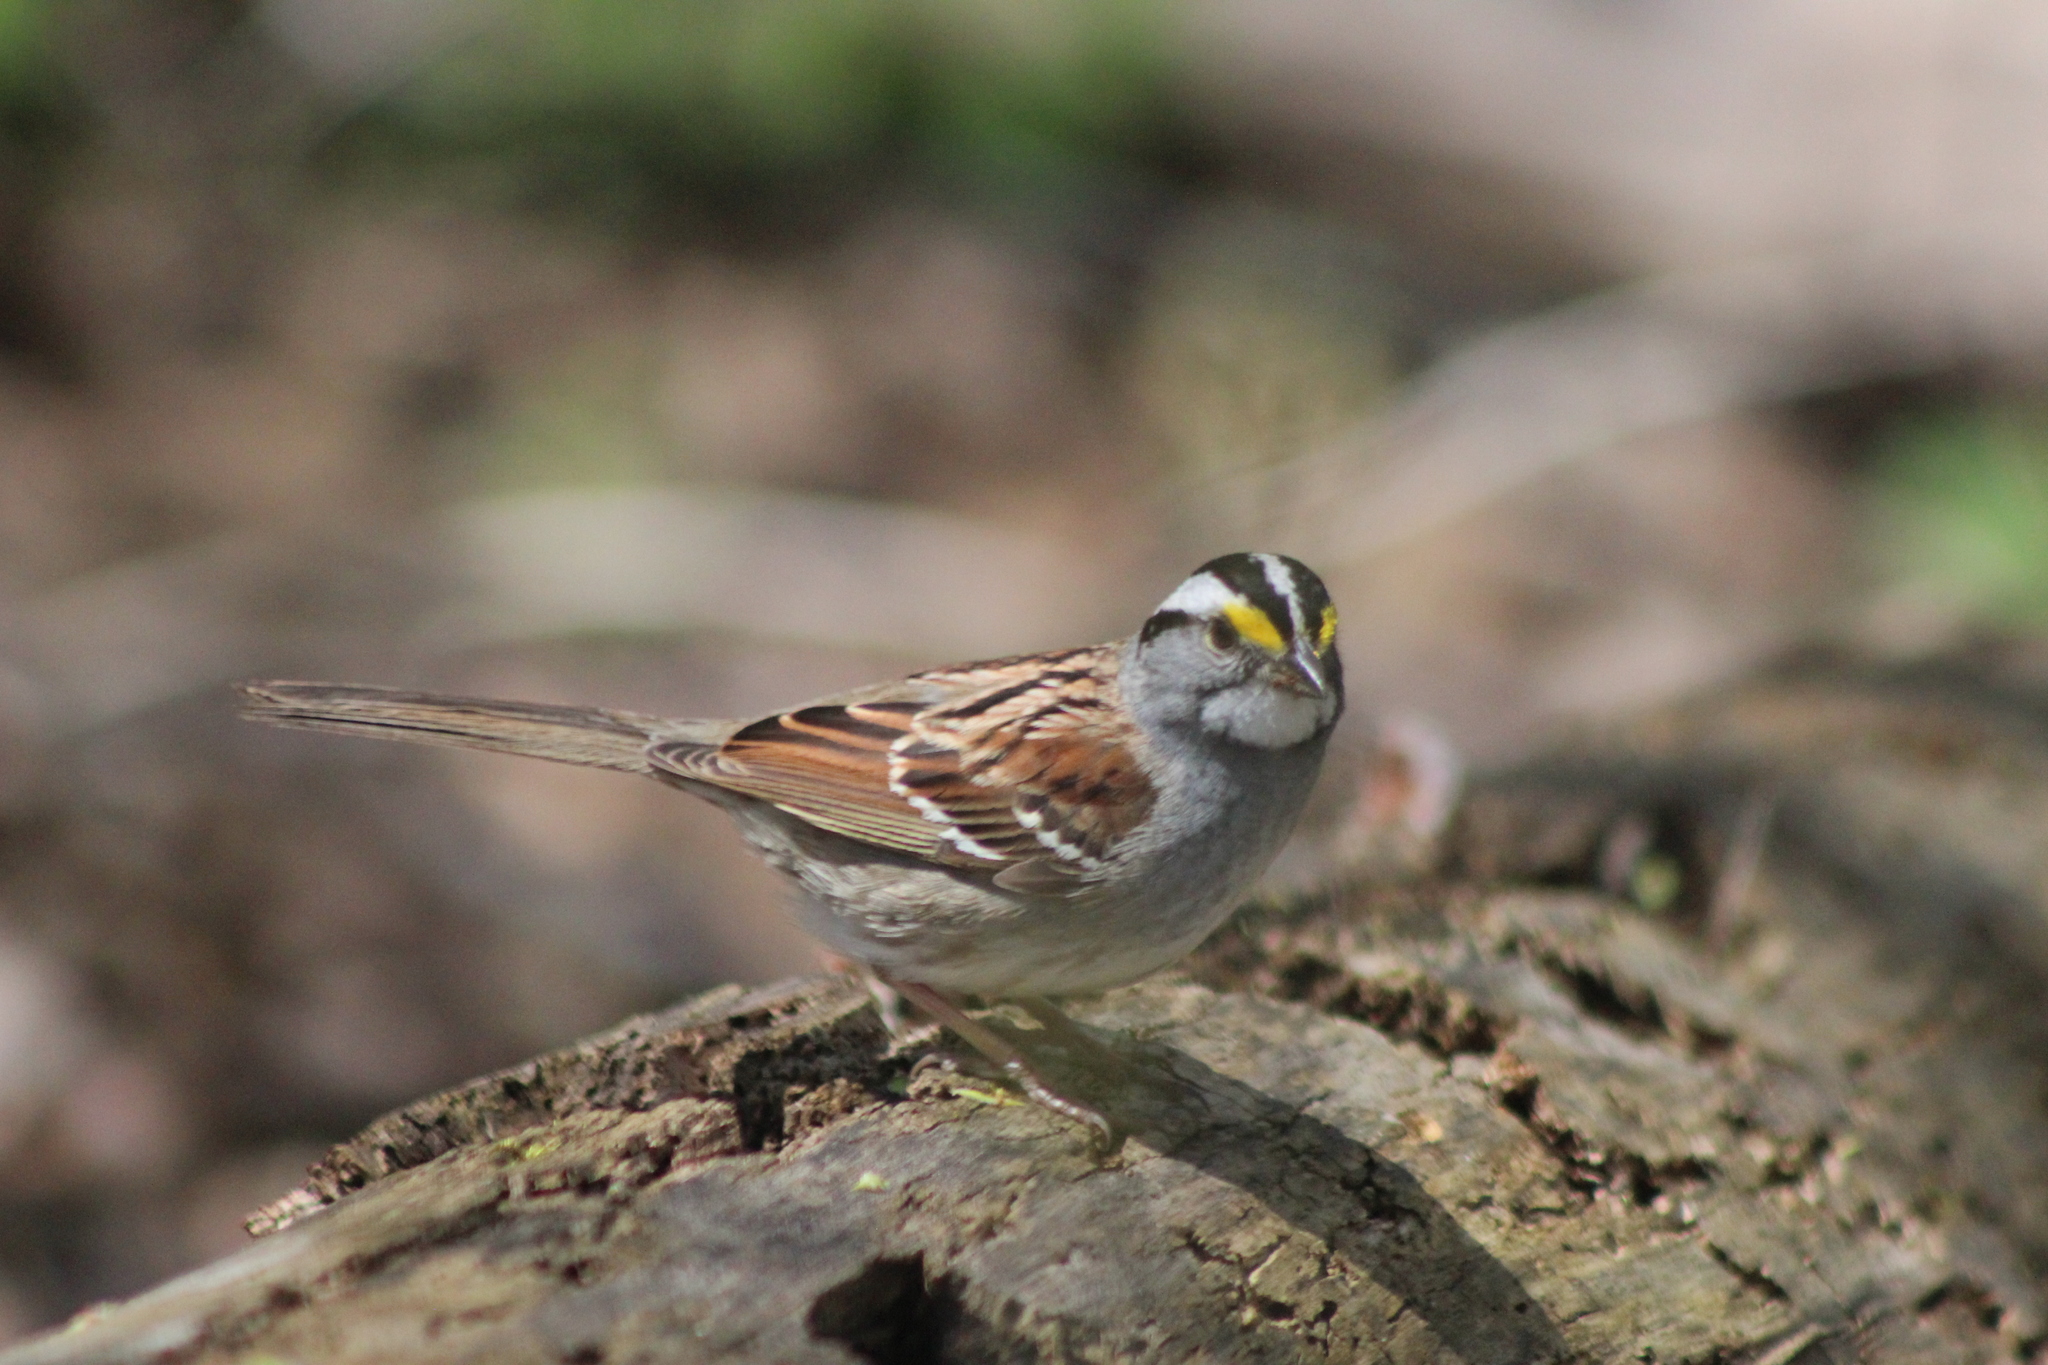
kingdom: Animalia
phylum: Chordata
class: Aves
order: Passeriformes
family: Passerellidae
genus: Zonotrichia
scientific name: Zonotrichia albicollis
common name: White-throated sparrow
